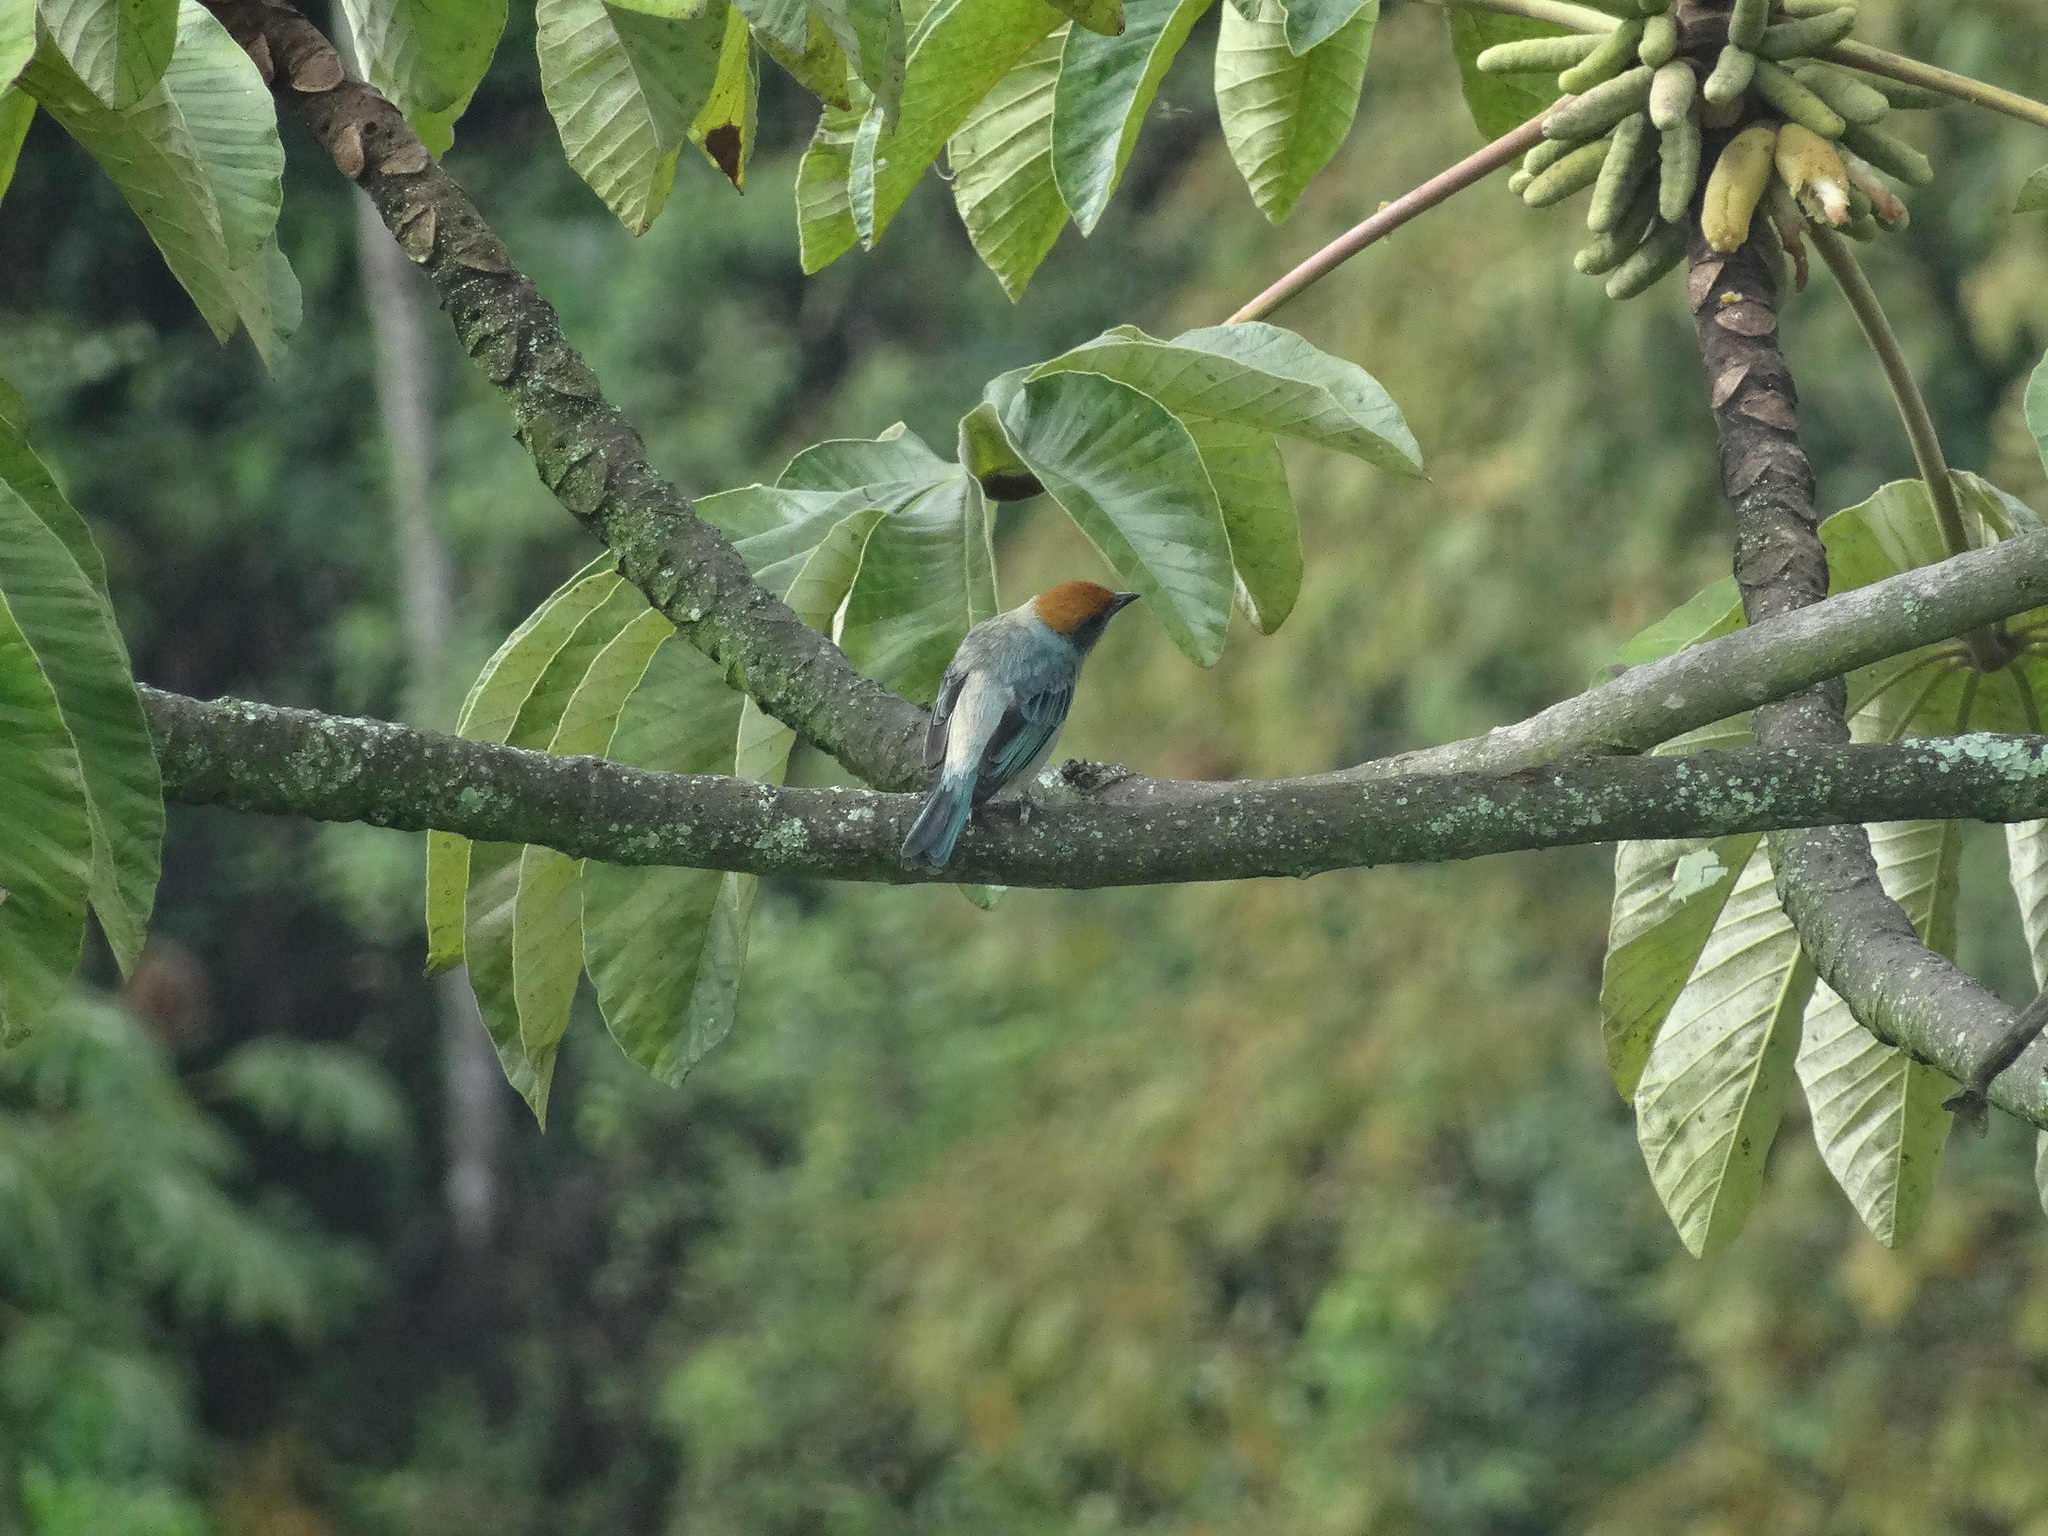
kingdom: Animalia
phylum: Chordata
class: Aves
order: Passeriformes
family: Thraupidae
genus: Stilpnia
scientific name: Stilpnia vitriolina
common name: Scrub tanager
